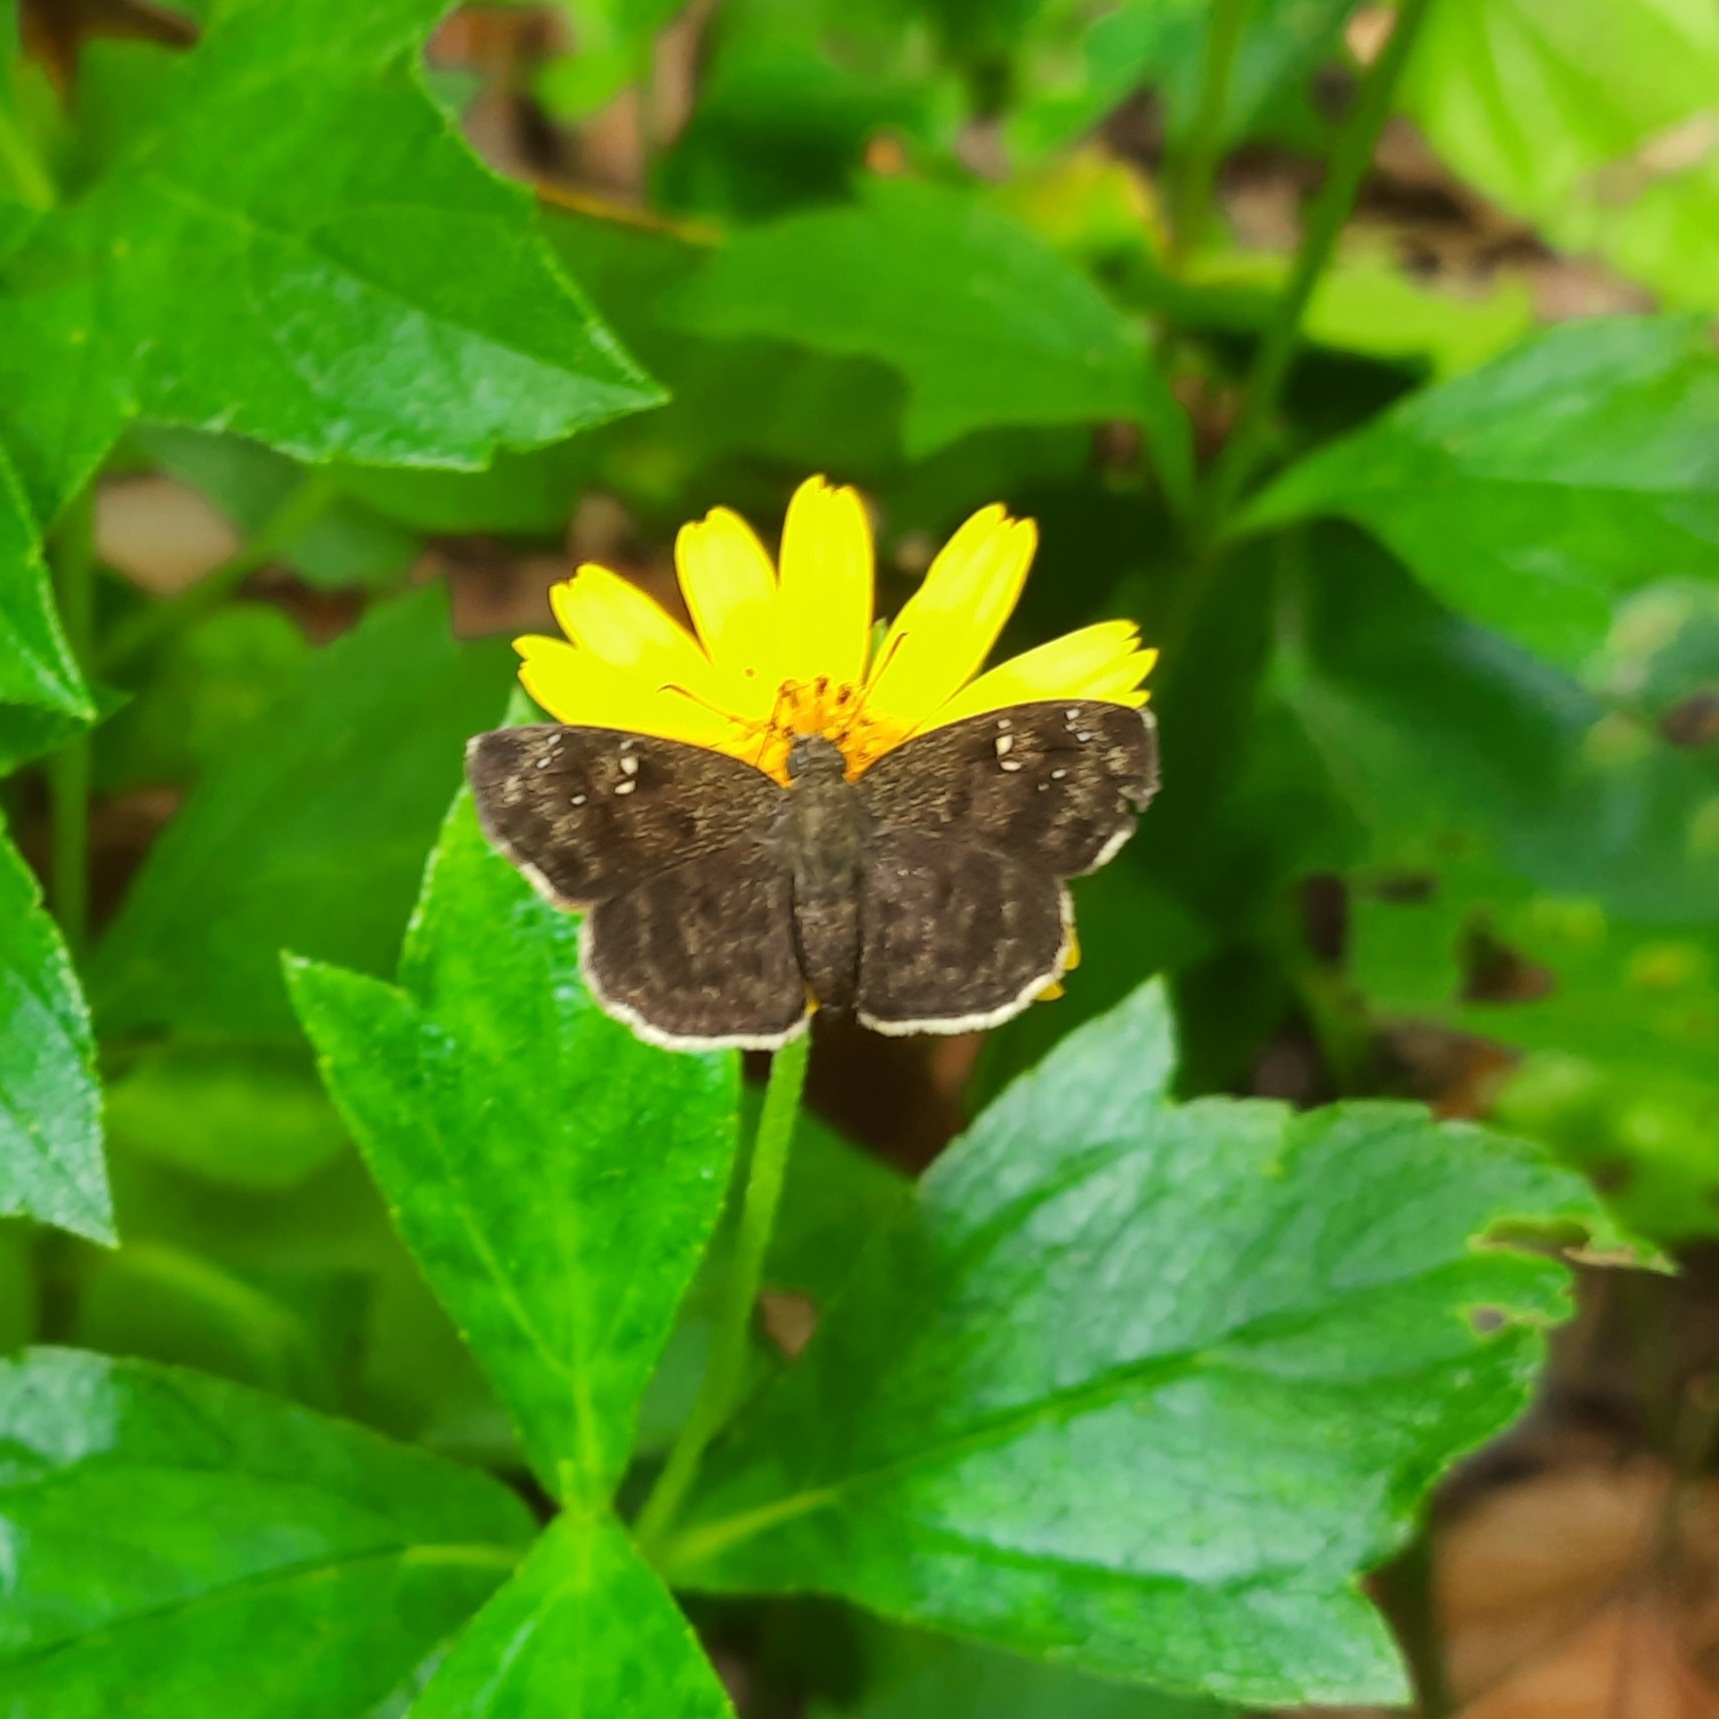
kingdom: Animalia
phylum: Arthropoda
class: Insecta
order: Lepidoptera
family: Hesperiidae
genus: Sarangesa
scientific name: Sarangesa dasahara
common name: Common small flat
